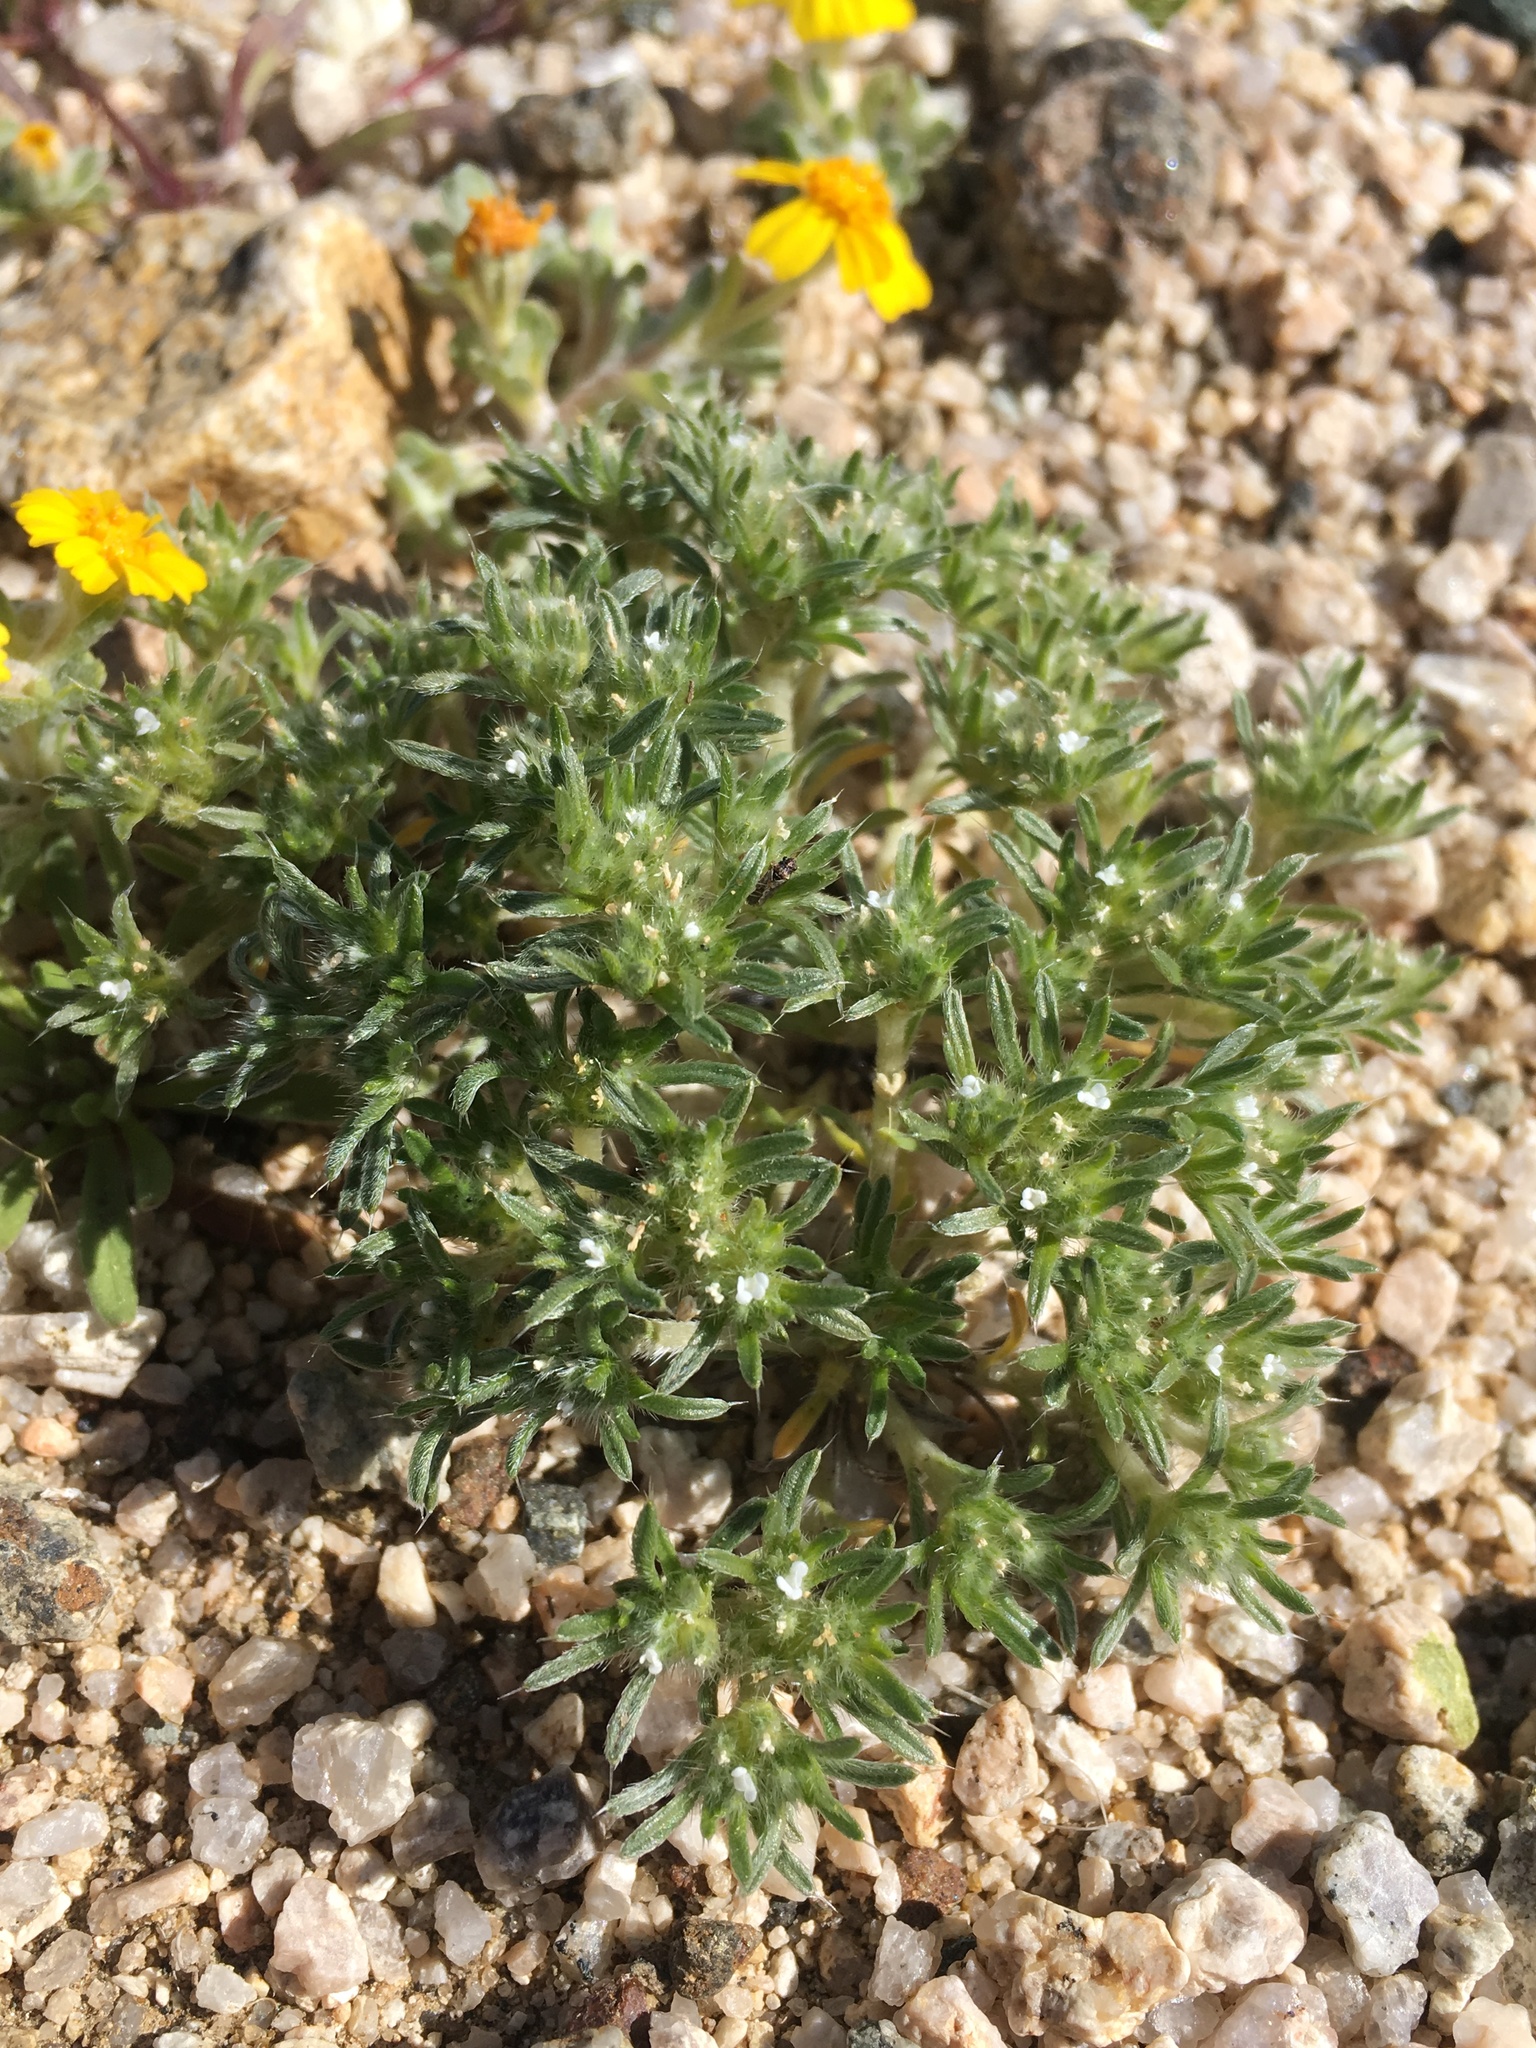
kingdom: Plantae
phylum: Tracheophyta
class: Magnoliopsida
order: Boraginales
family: Boraginaceae
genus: Greeneocharis
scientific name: Greeneocharis circumscissa
